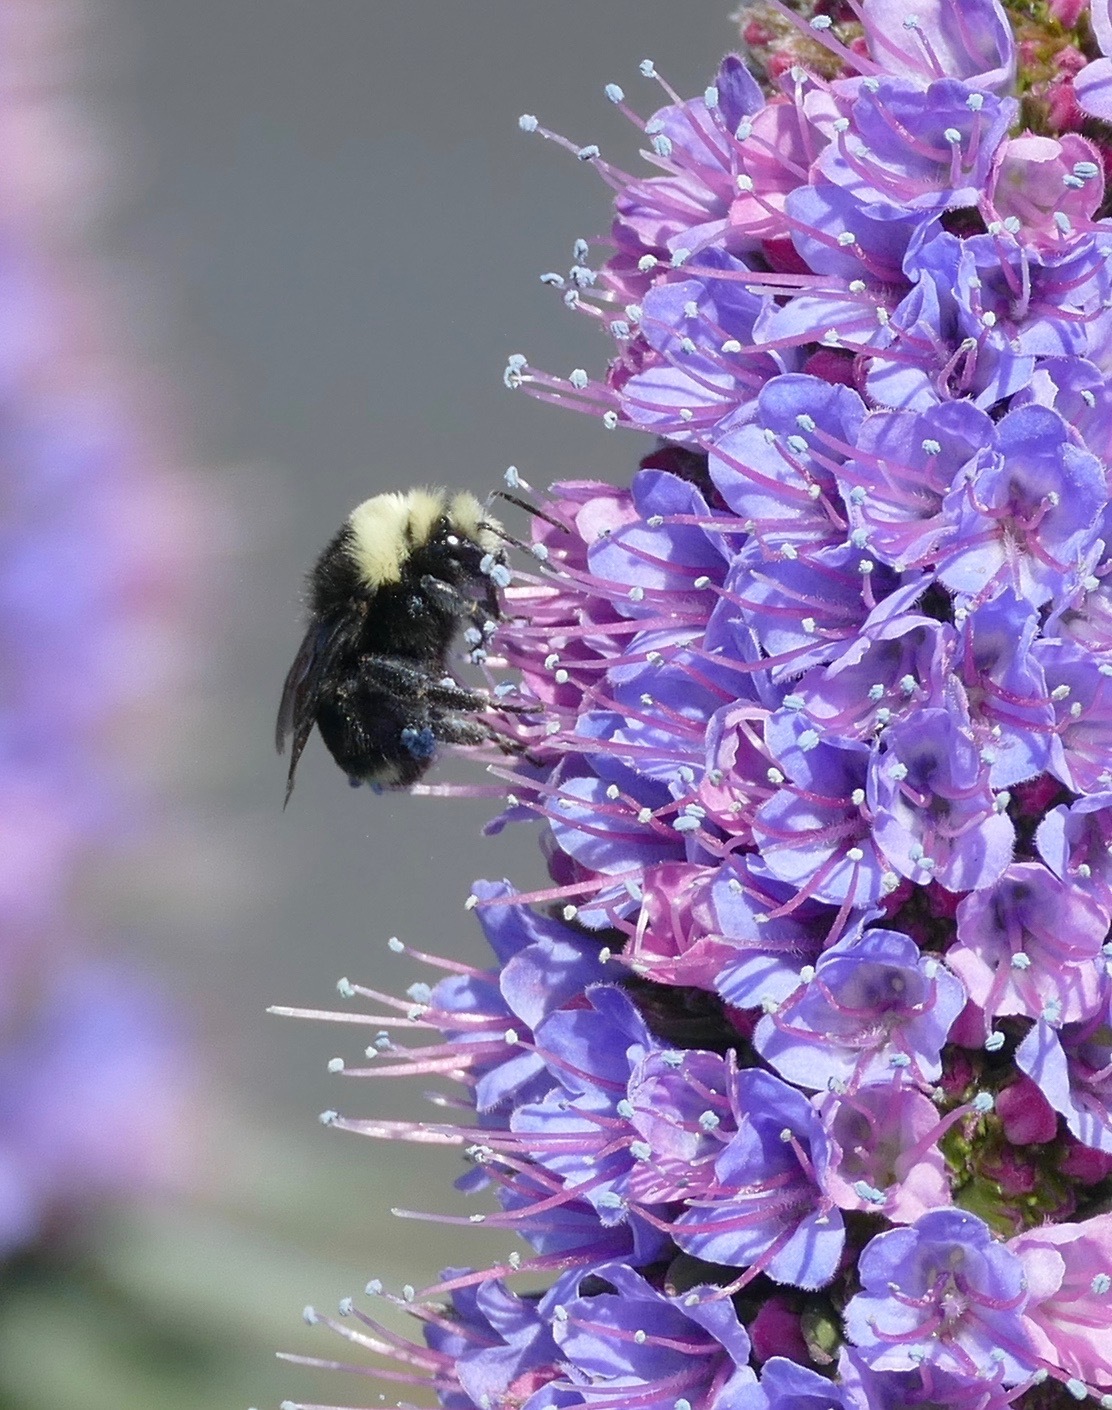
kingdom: Animalia
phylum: Arthropoda
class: Insecta
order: Hymenoptera
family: Apidae
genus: Bombus
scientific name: Bombus vosnesenskii
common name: Vosnesensky bumble bee
